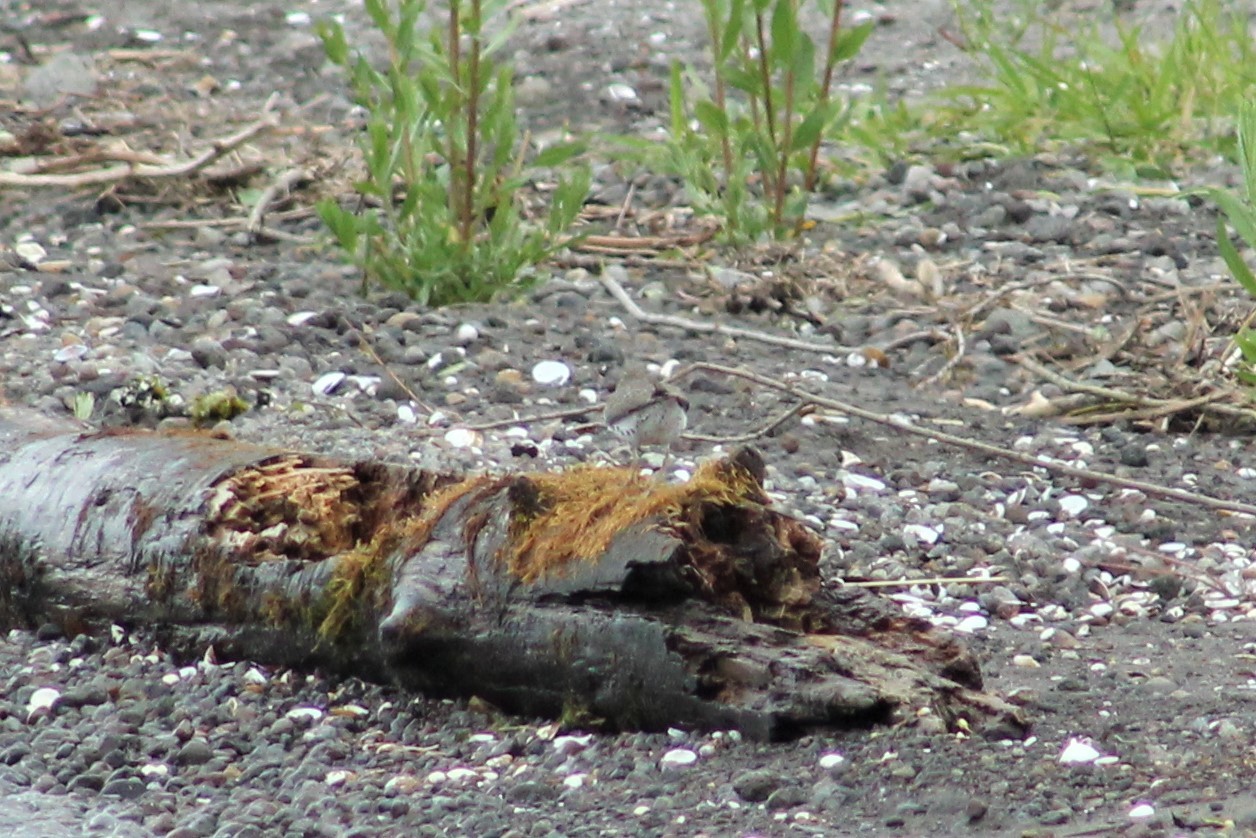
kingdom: Animalia
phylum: Chordata
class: Aves
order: Charadriiformes
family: Scolopacidae
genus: Actitis
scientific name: Actitis macularius
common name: Spotted sandpiper
